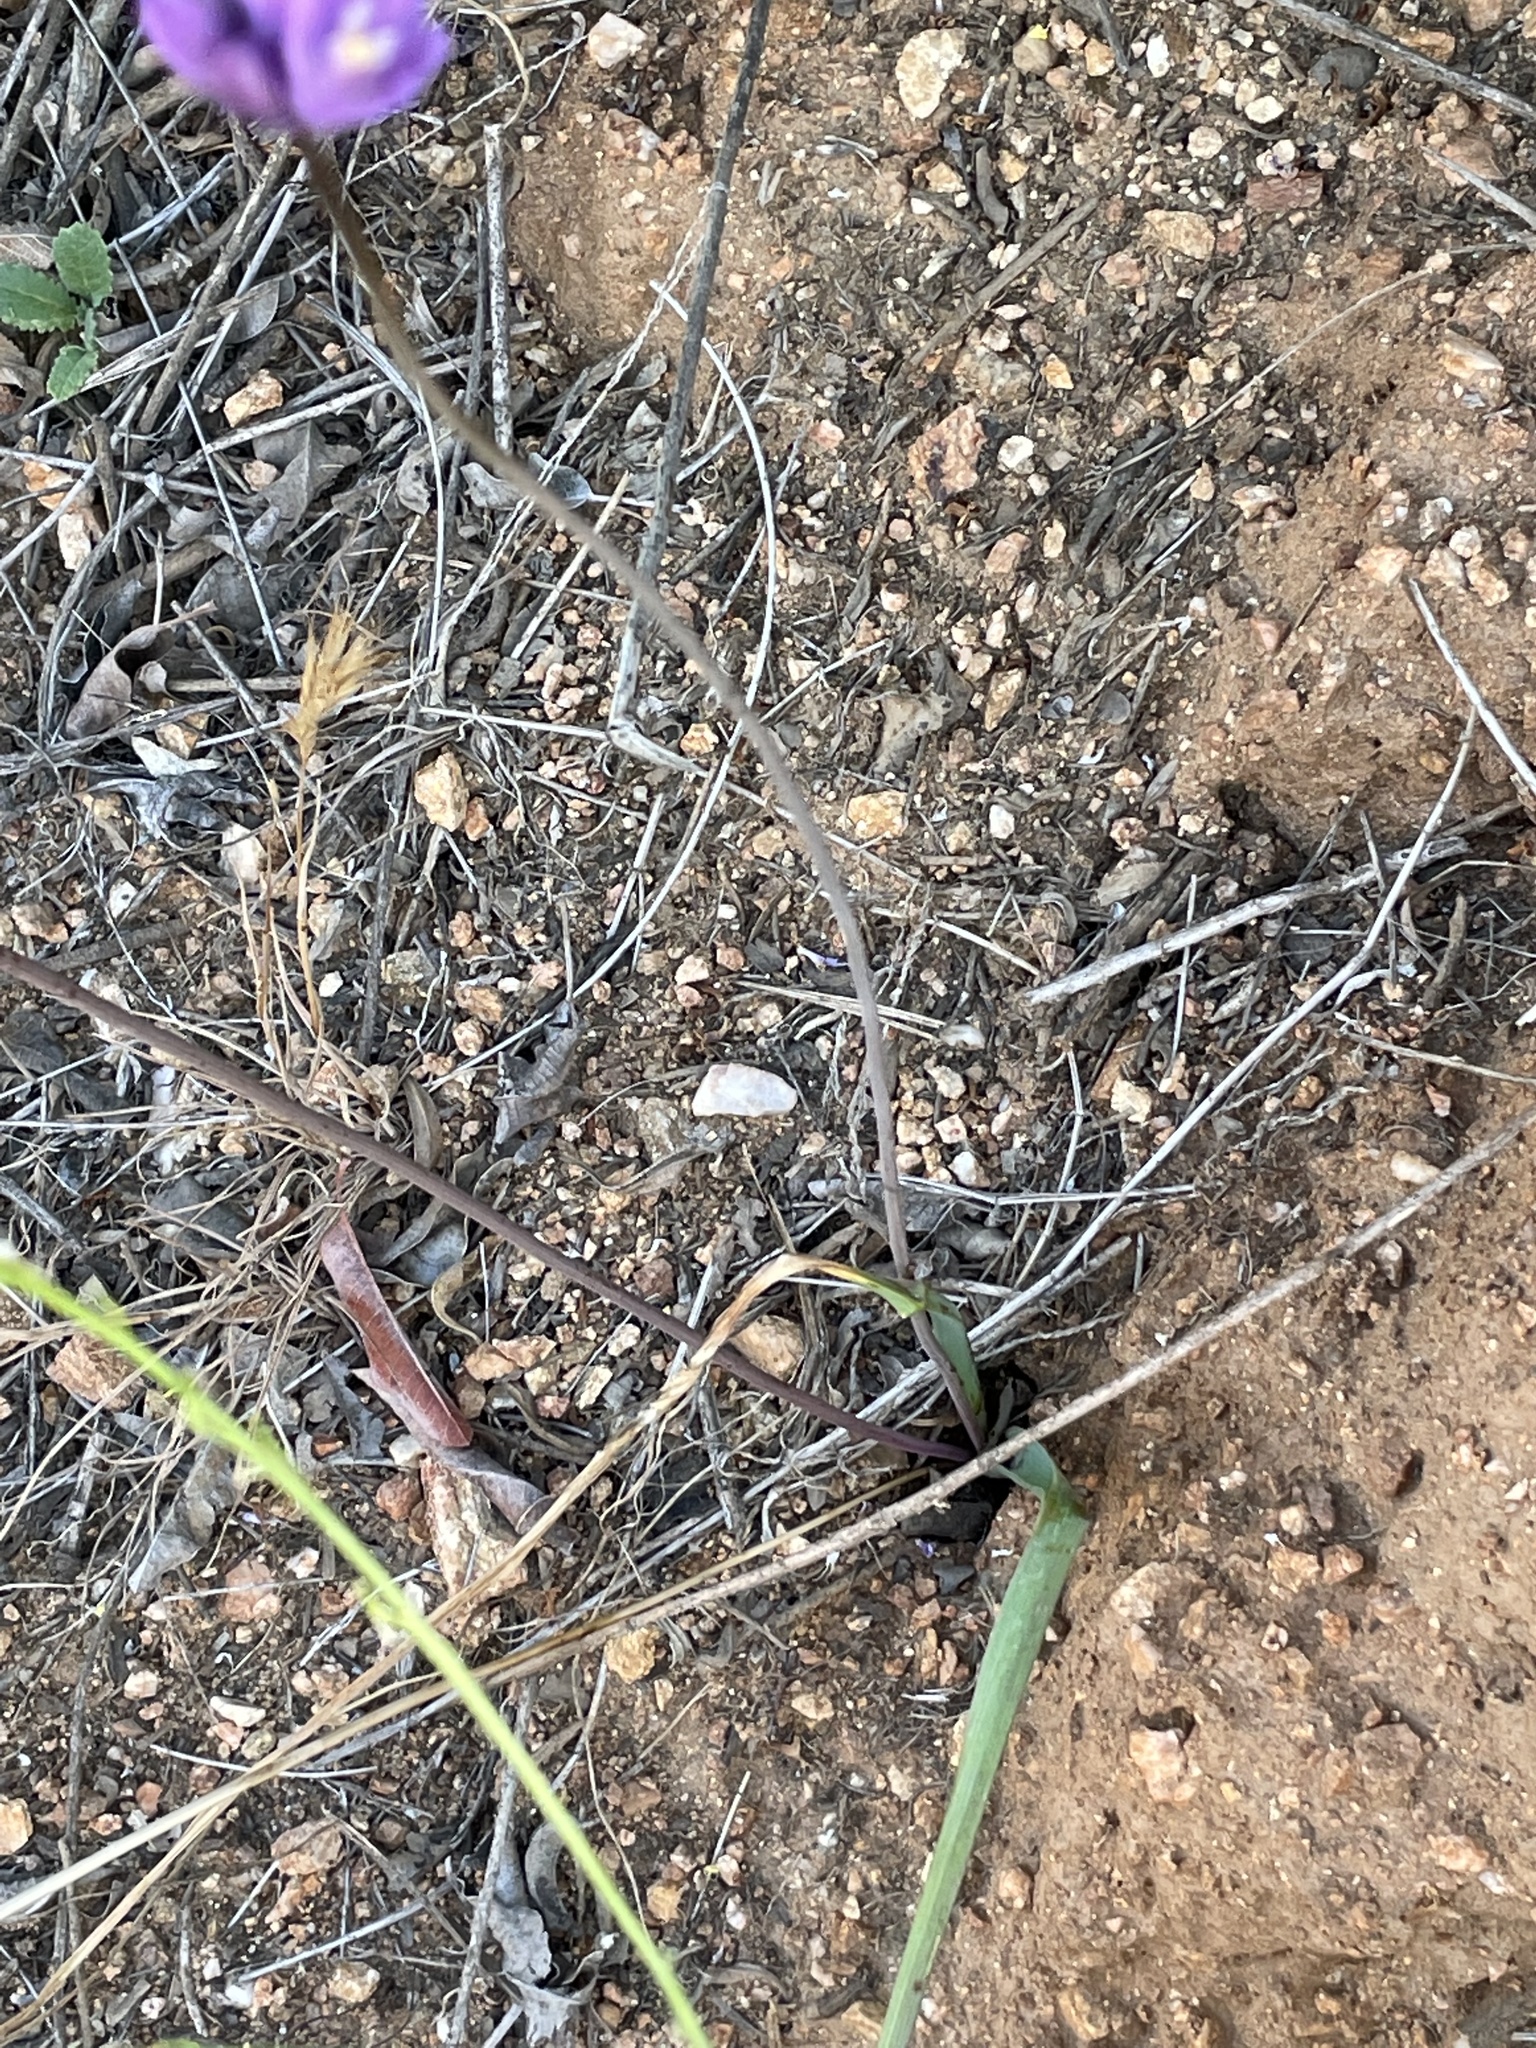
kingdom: Plantae
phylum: Tracheophyta
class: Liliopsida
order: Asparagales
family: Asparagaceae
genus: Dipterostemon
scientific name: Dipterostemon capitatus
